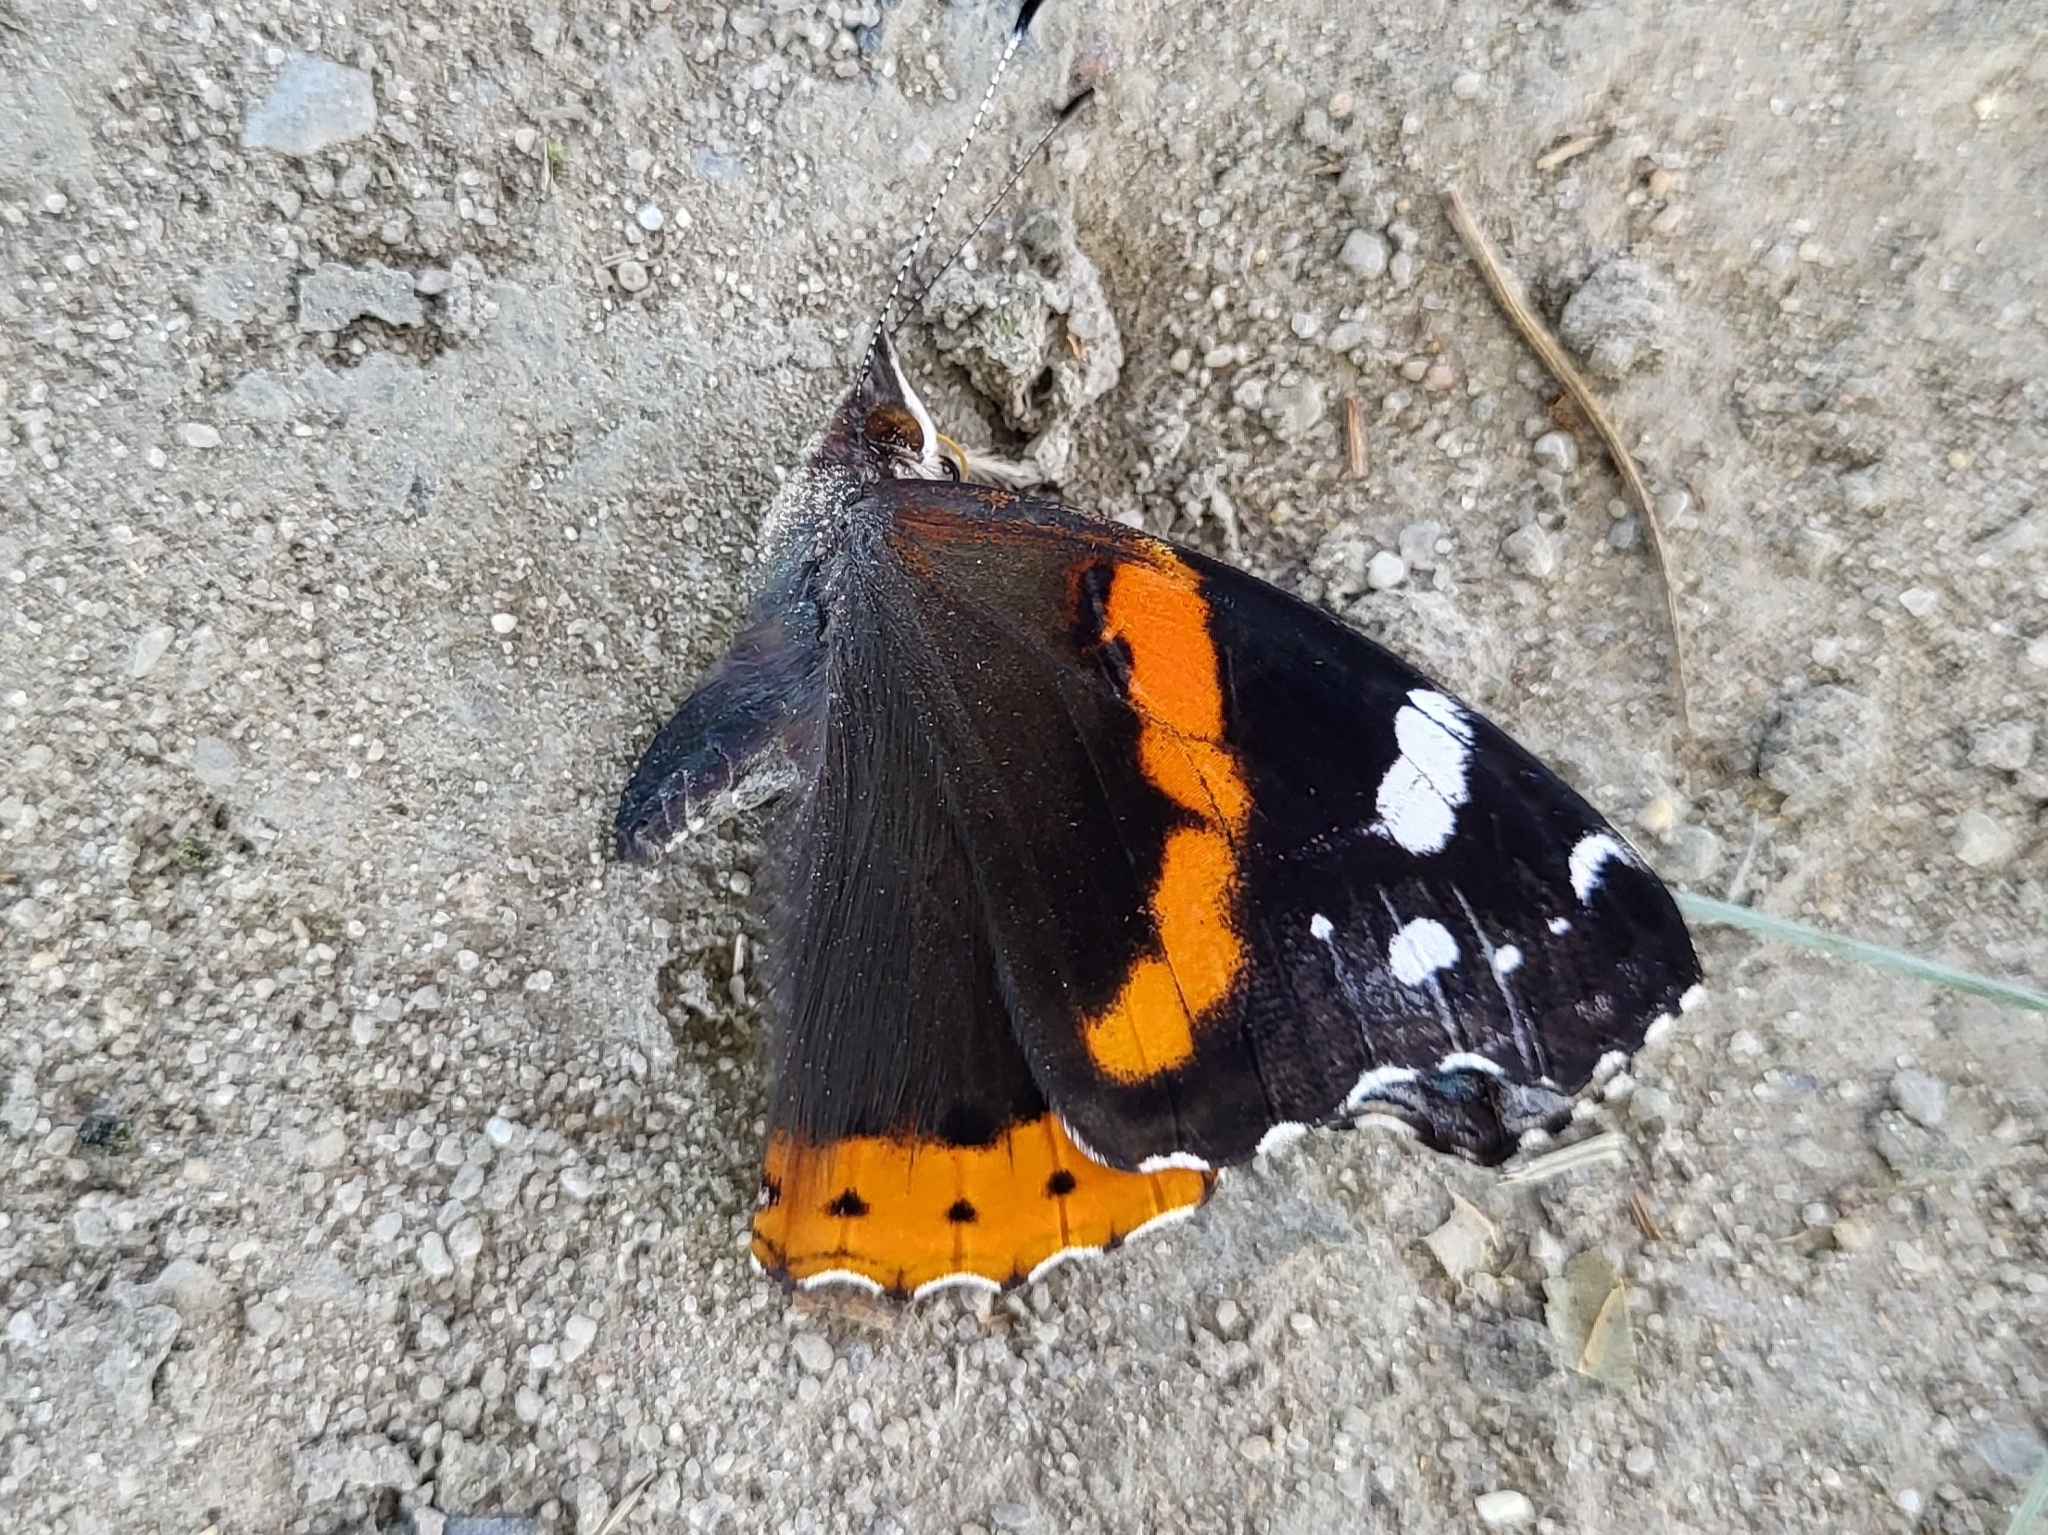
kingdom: Animalia
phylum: Arthropoda
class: Insecta
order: Lepidoptera
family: Nymphalidae
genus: Vanessa
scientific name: Vanessa atalanta
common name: Red admiral
